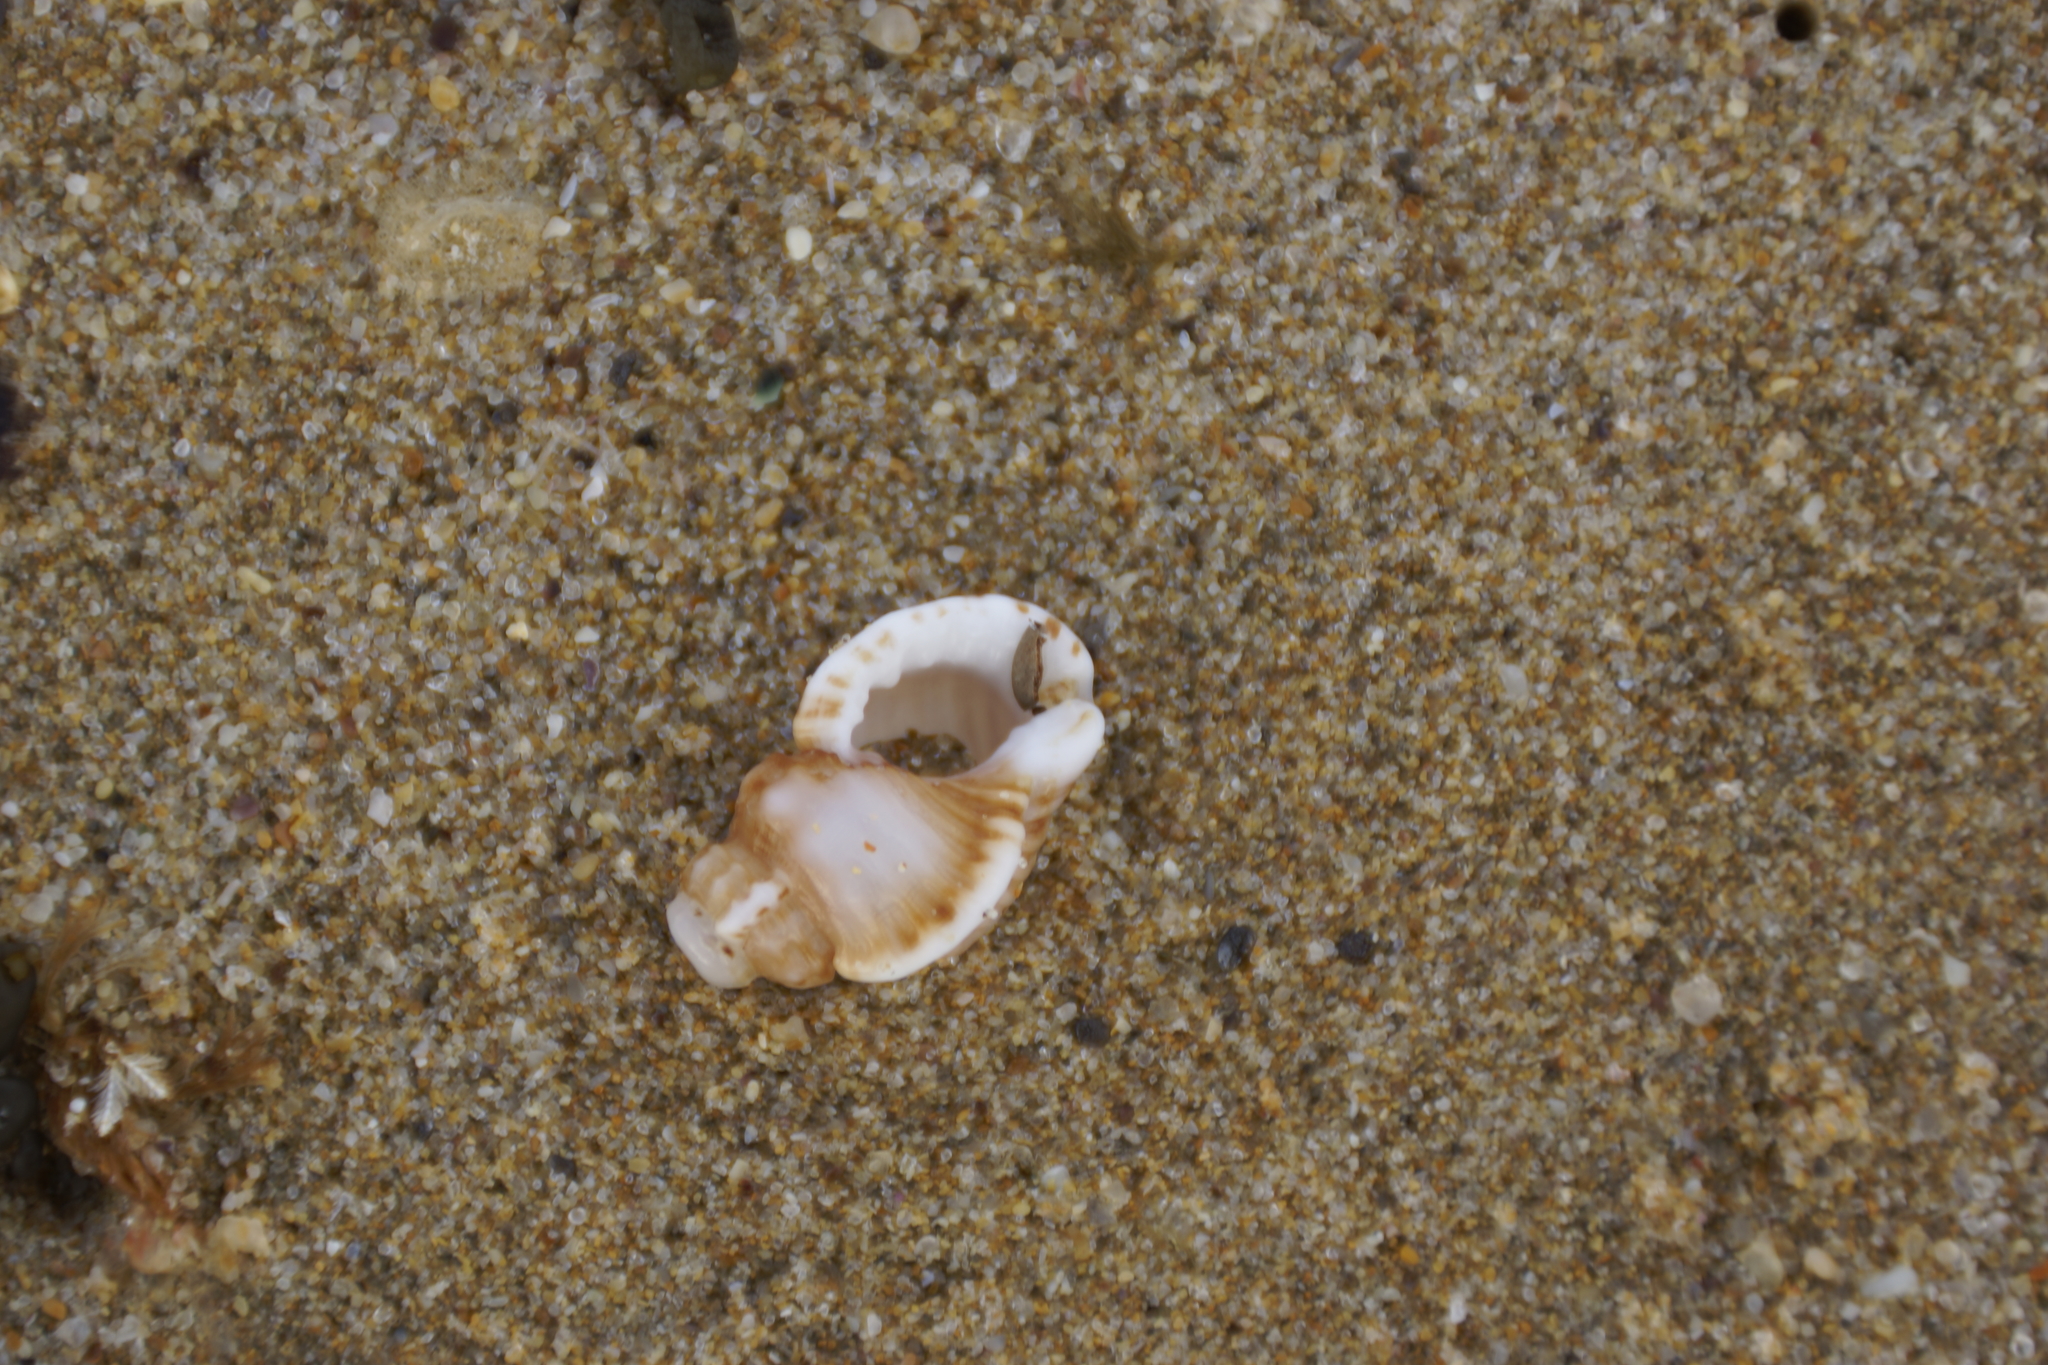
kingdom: Animalia
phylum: Mollusca
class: Gastropoda
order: Littorinimorpha
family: Cymatiidae
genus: Cabestana
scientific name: Cabestana tabulata
